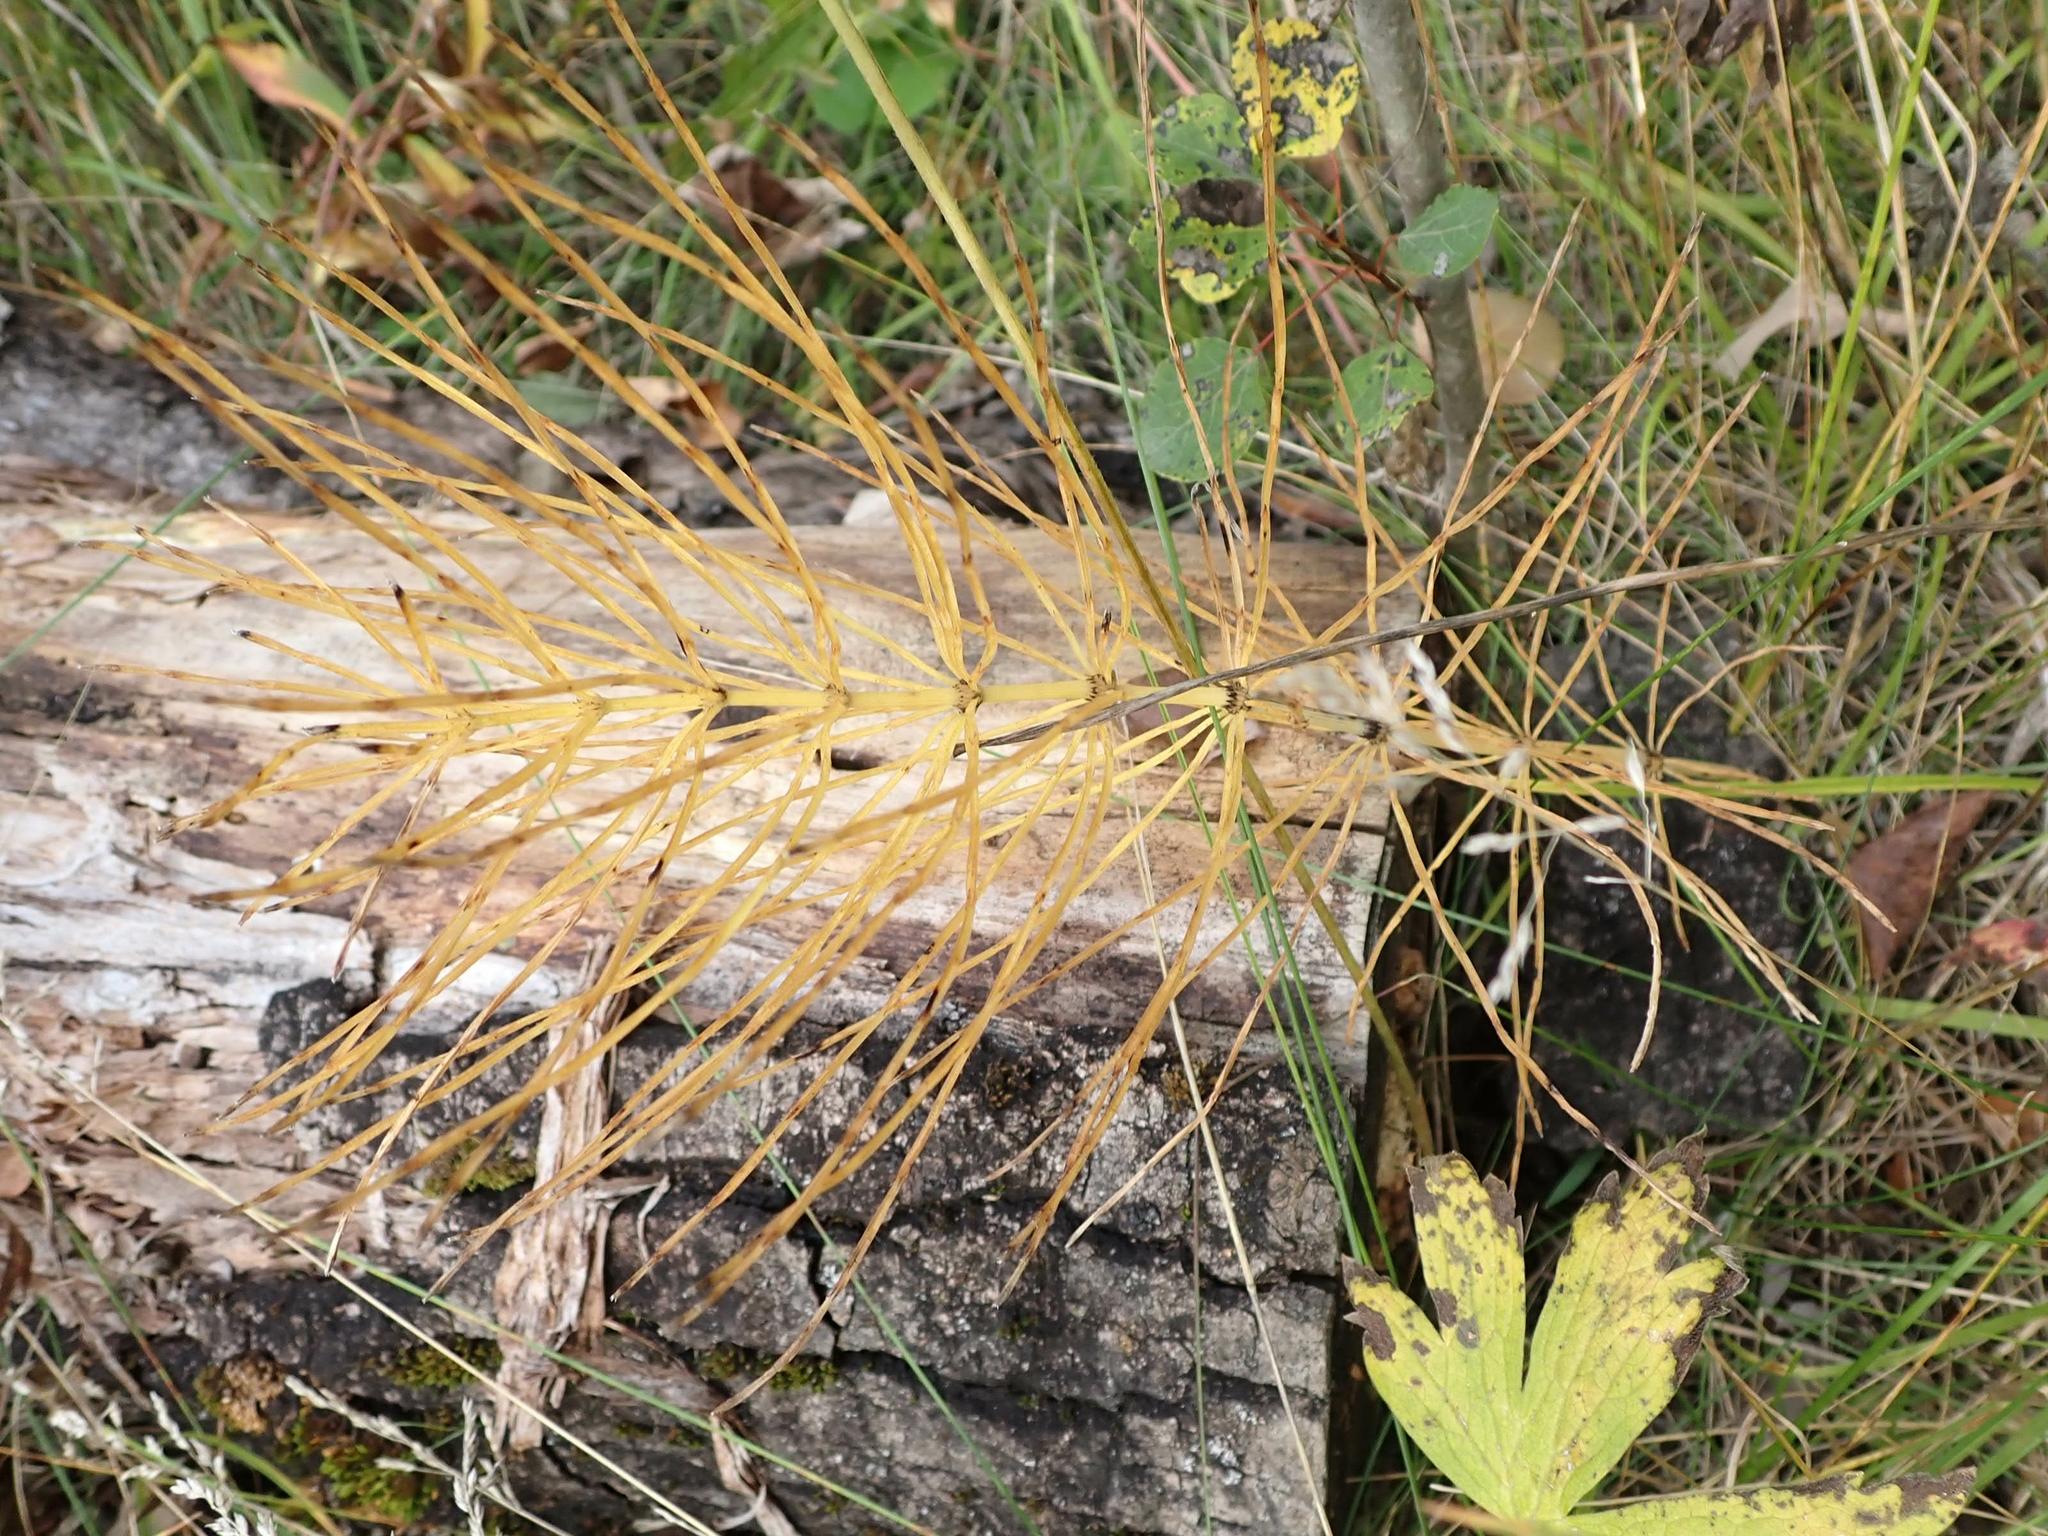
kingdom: Plantae
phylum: Tracheophyta
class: Polypodiopsida
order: Equisetales
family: Equisetaceae
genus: Equisetum
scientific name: Equisetum arvense
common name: Field horsetail
